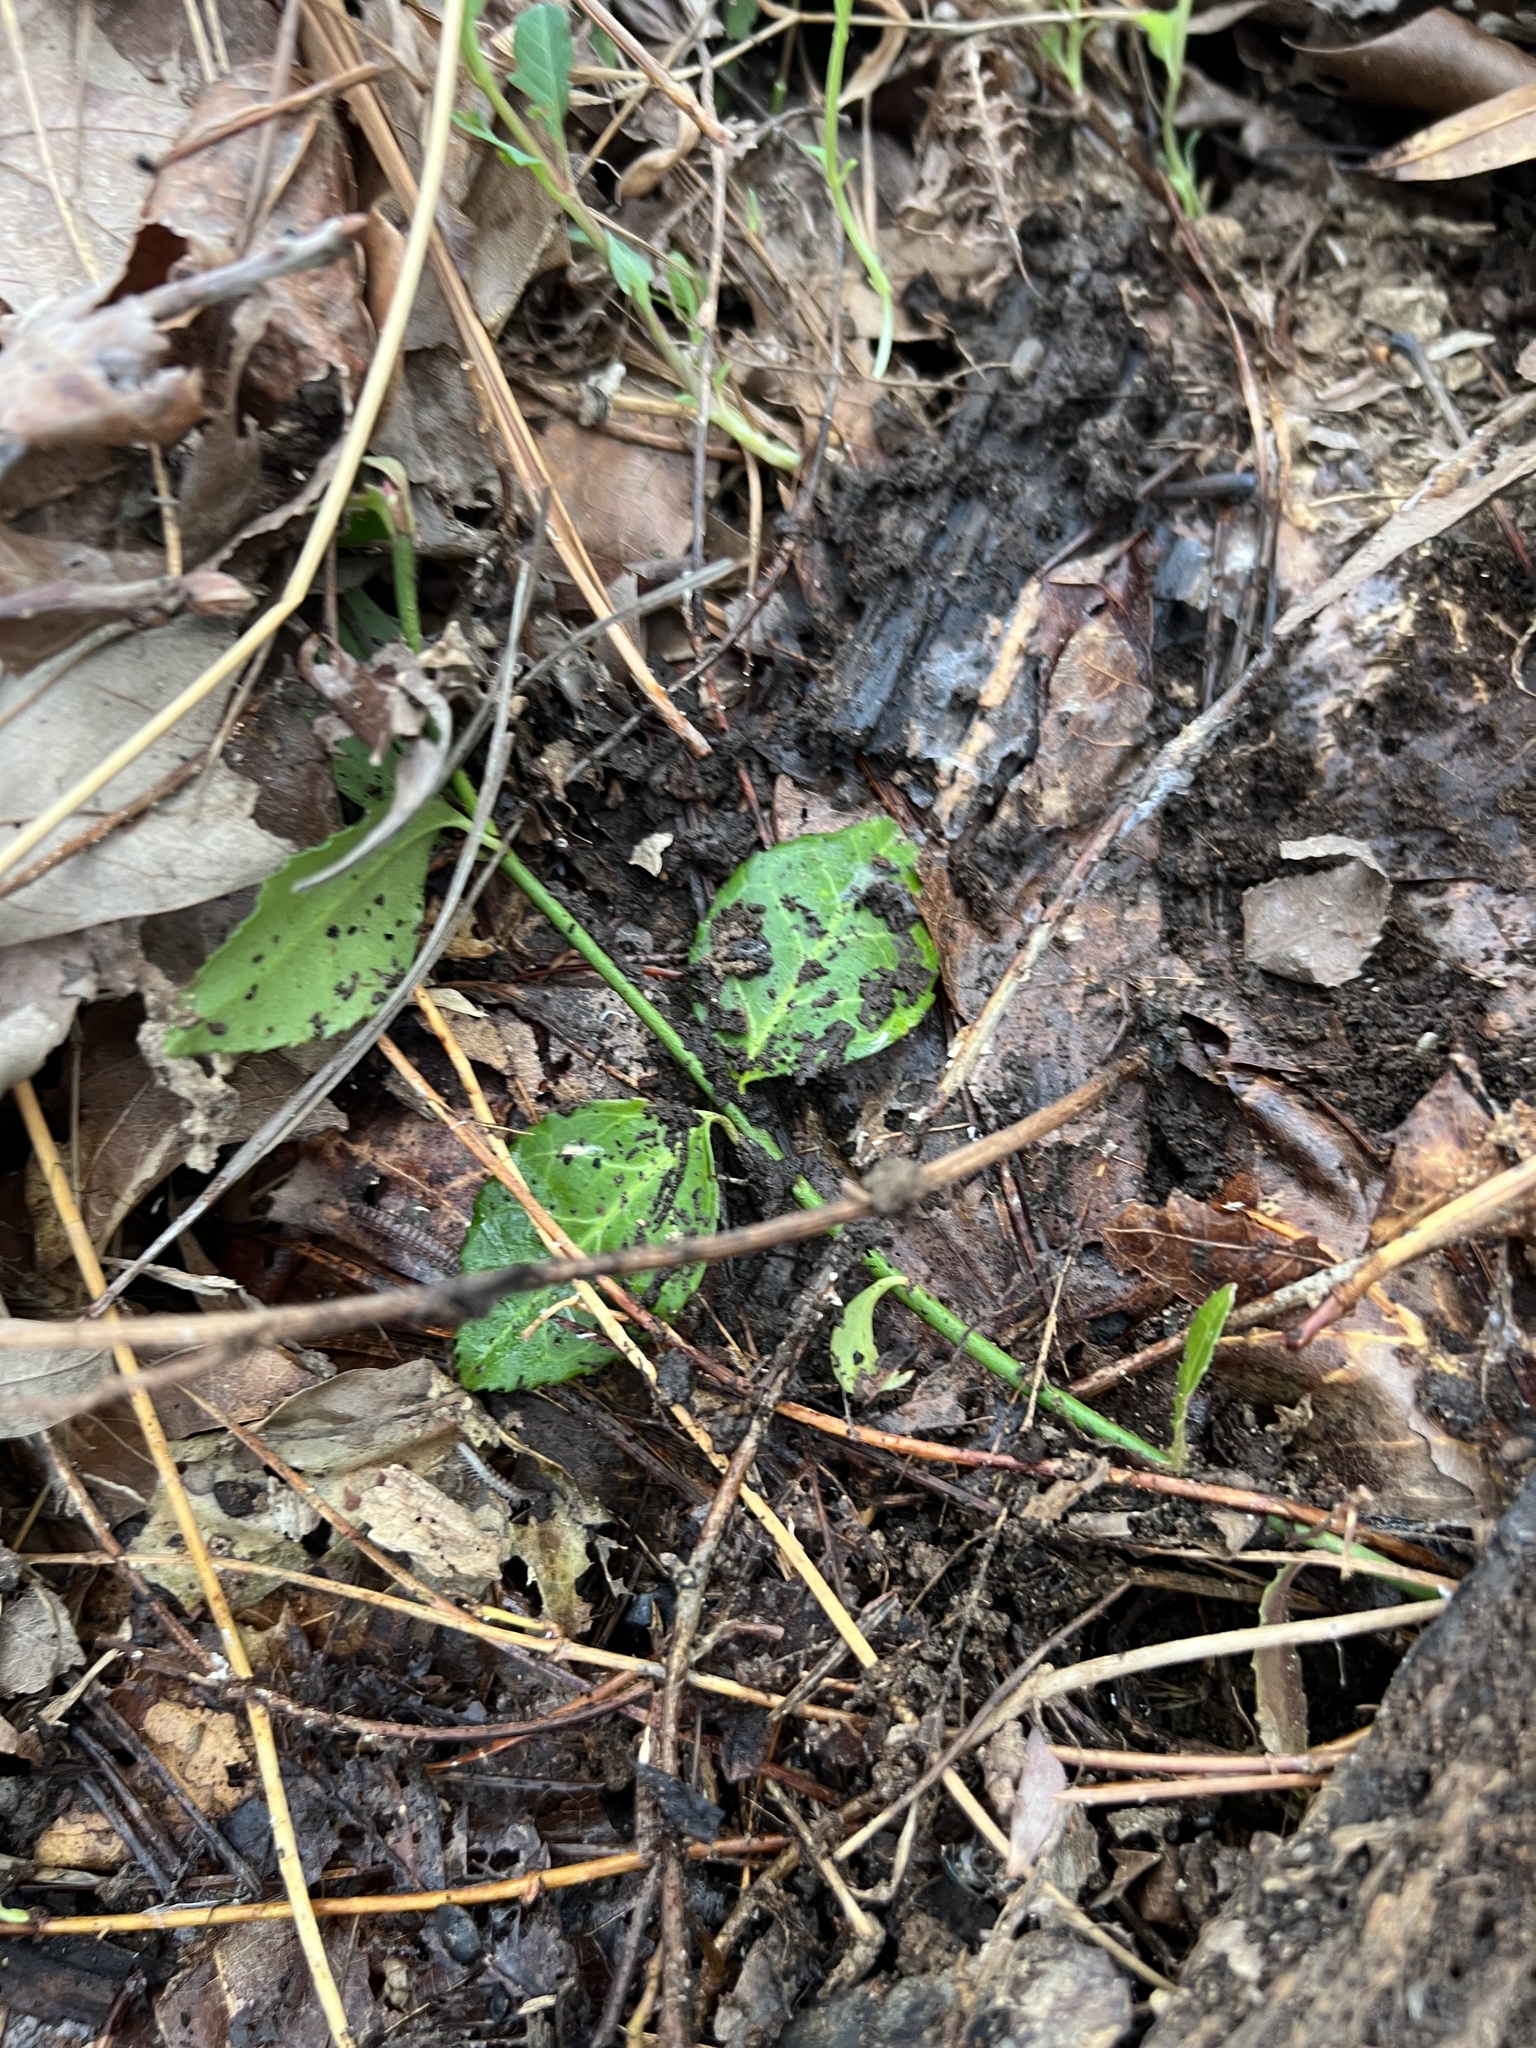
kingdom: Plantae
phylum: Tracheophyta
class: Magnoliopsida
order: Celastrales
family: Celastraceae
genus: Euonymus
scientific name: Euonymus fortunei
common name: Climbing euonymus
